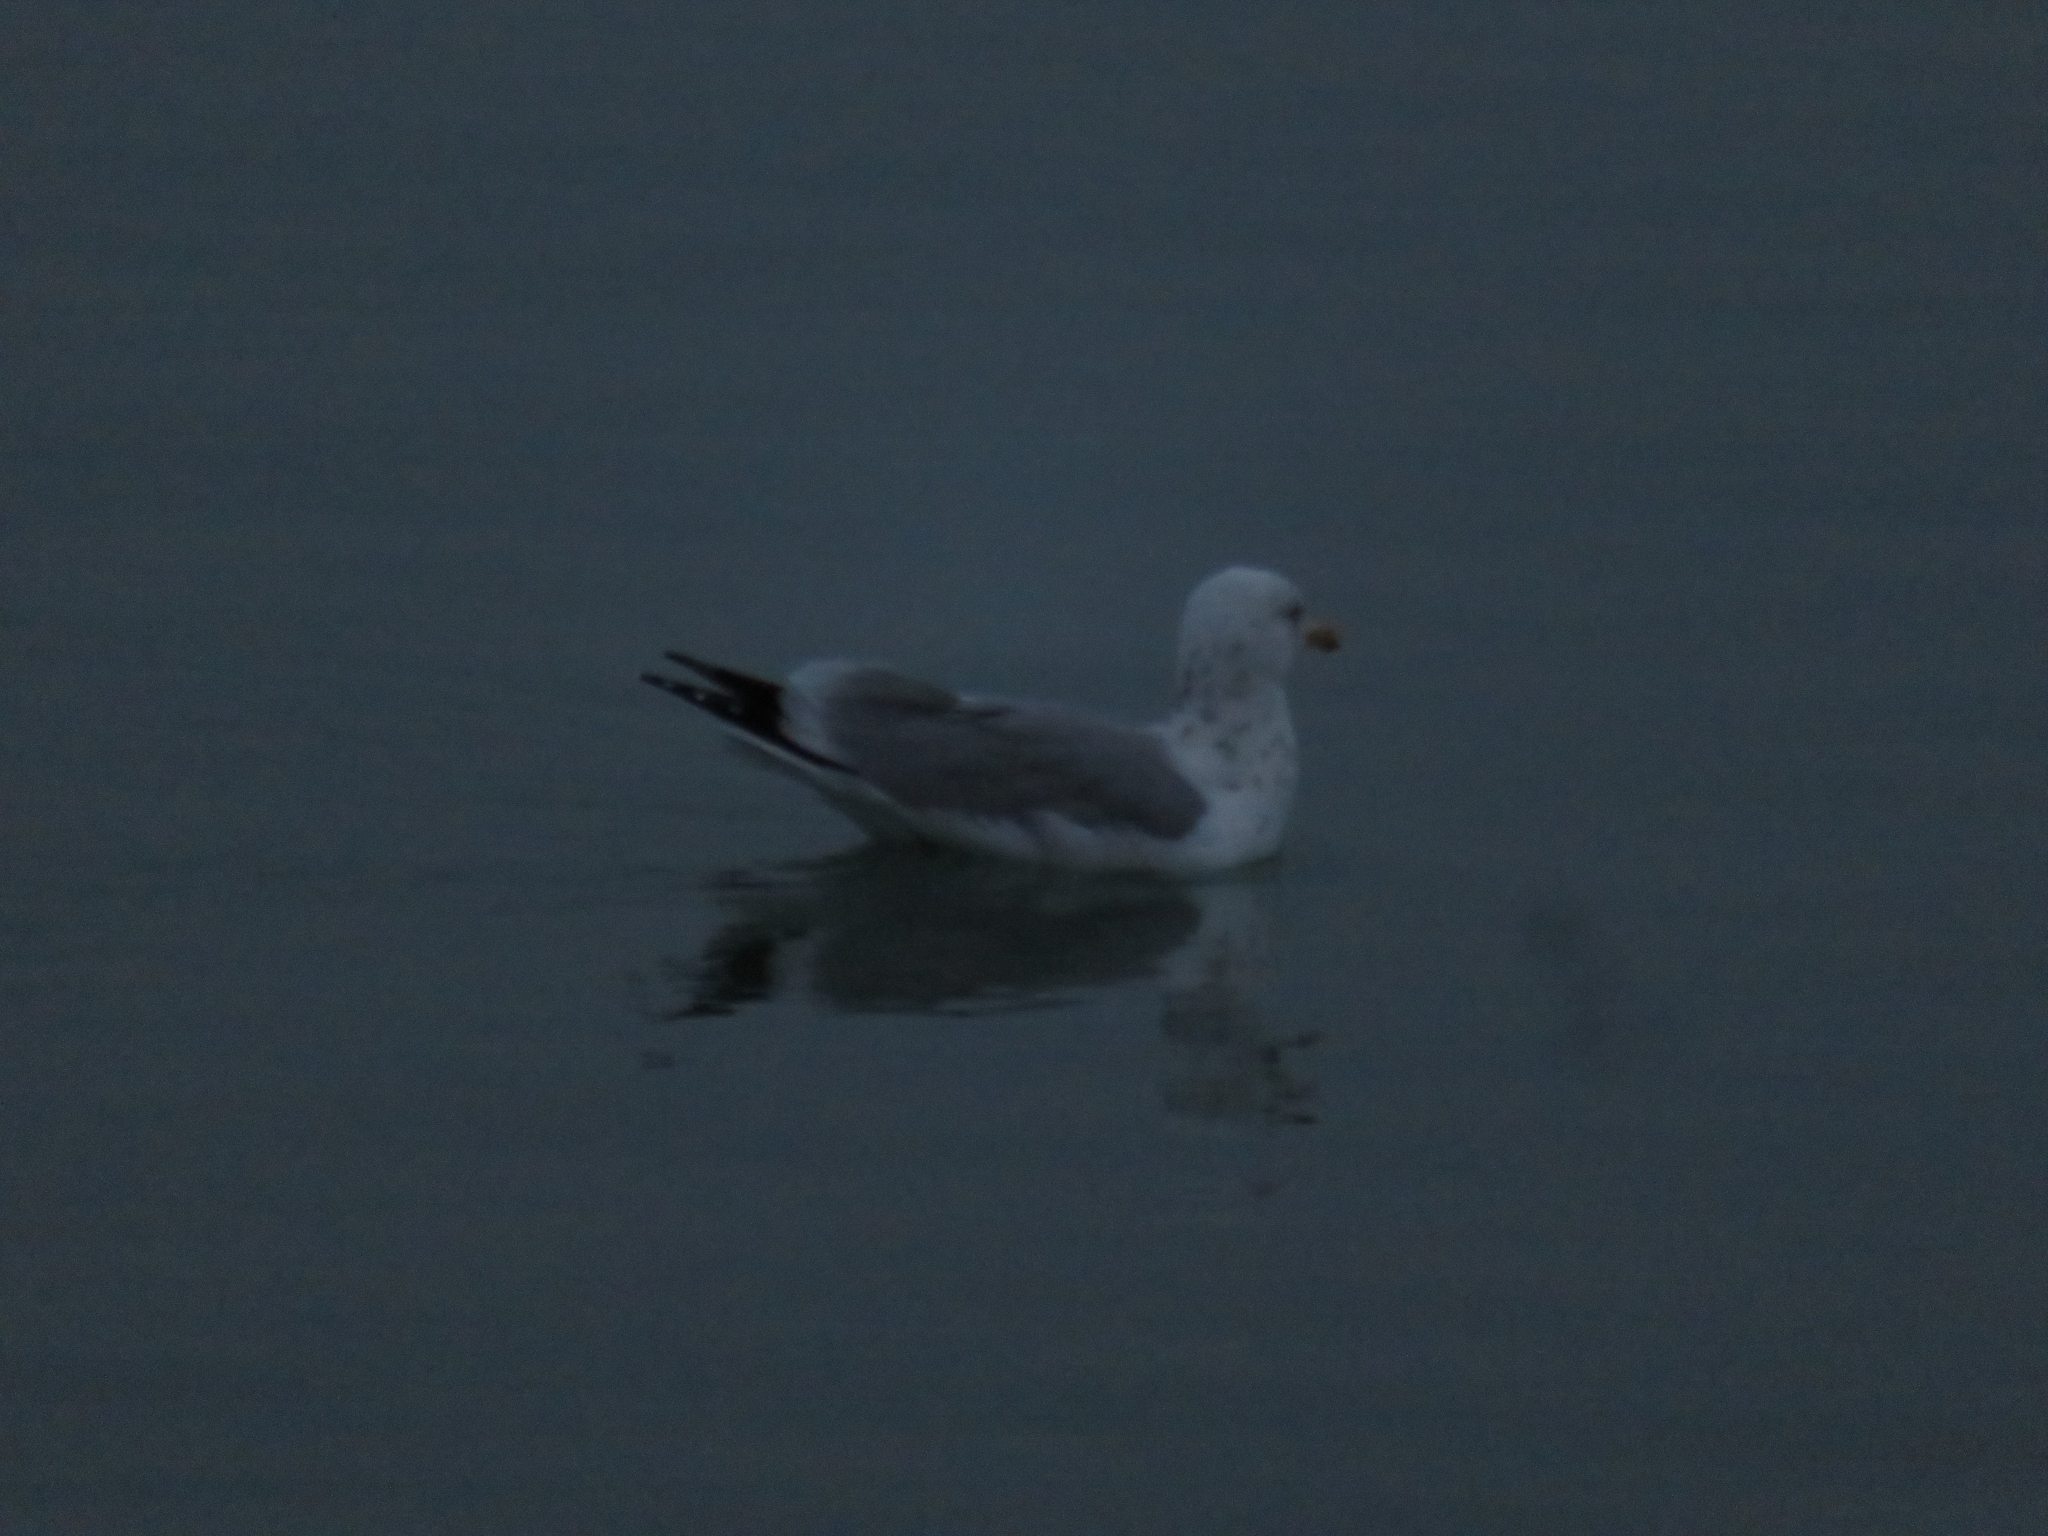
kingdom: Animalia
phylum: Chordata
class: Aves
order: Charadriiformes
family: Laridae
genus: Larus
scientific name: Larus argentatus
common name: Herring gull
